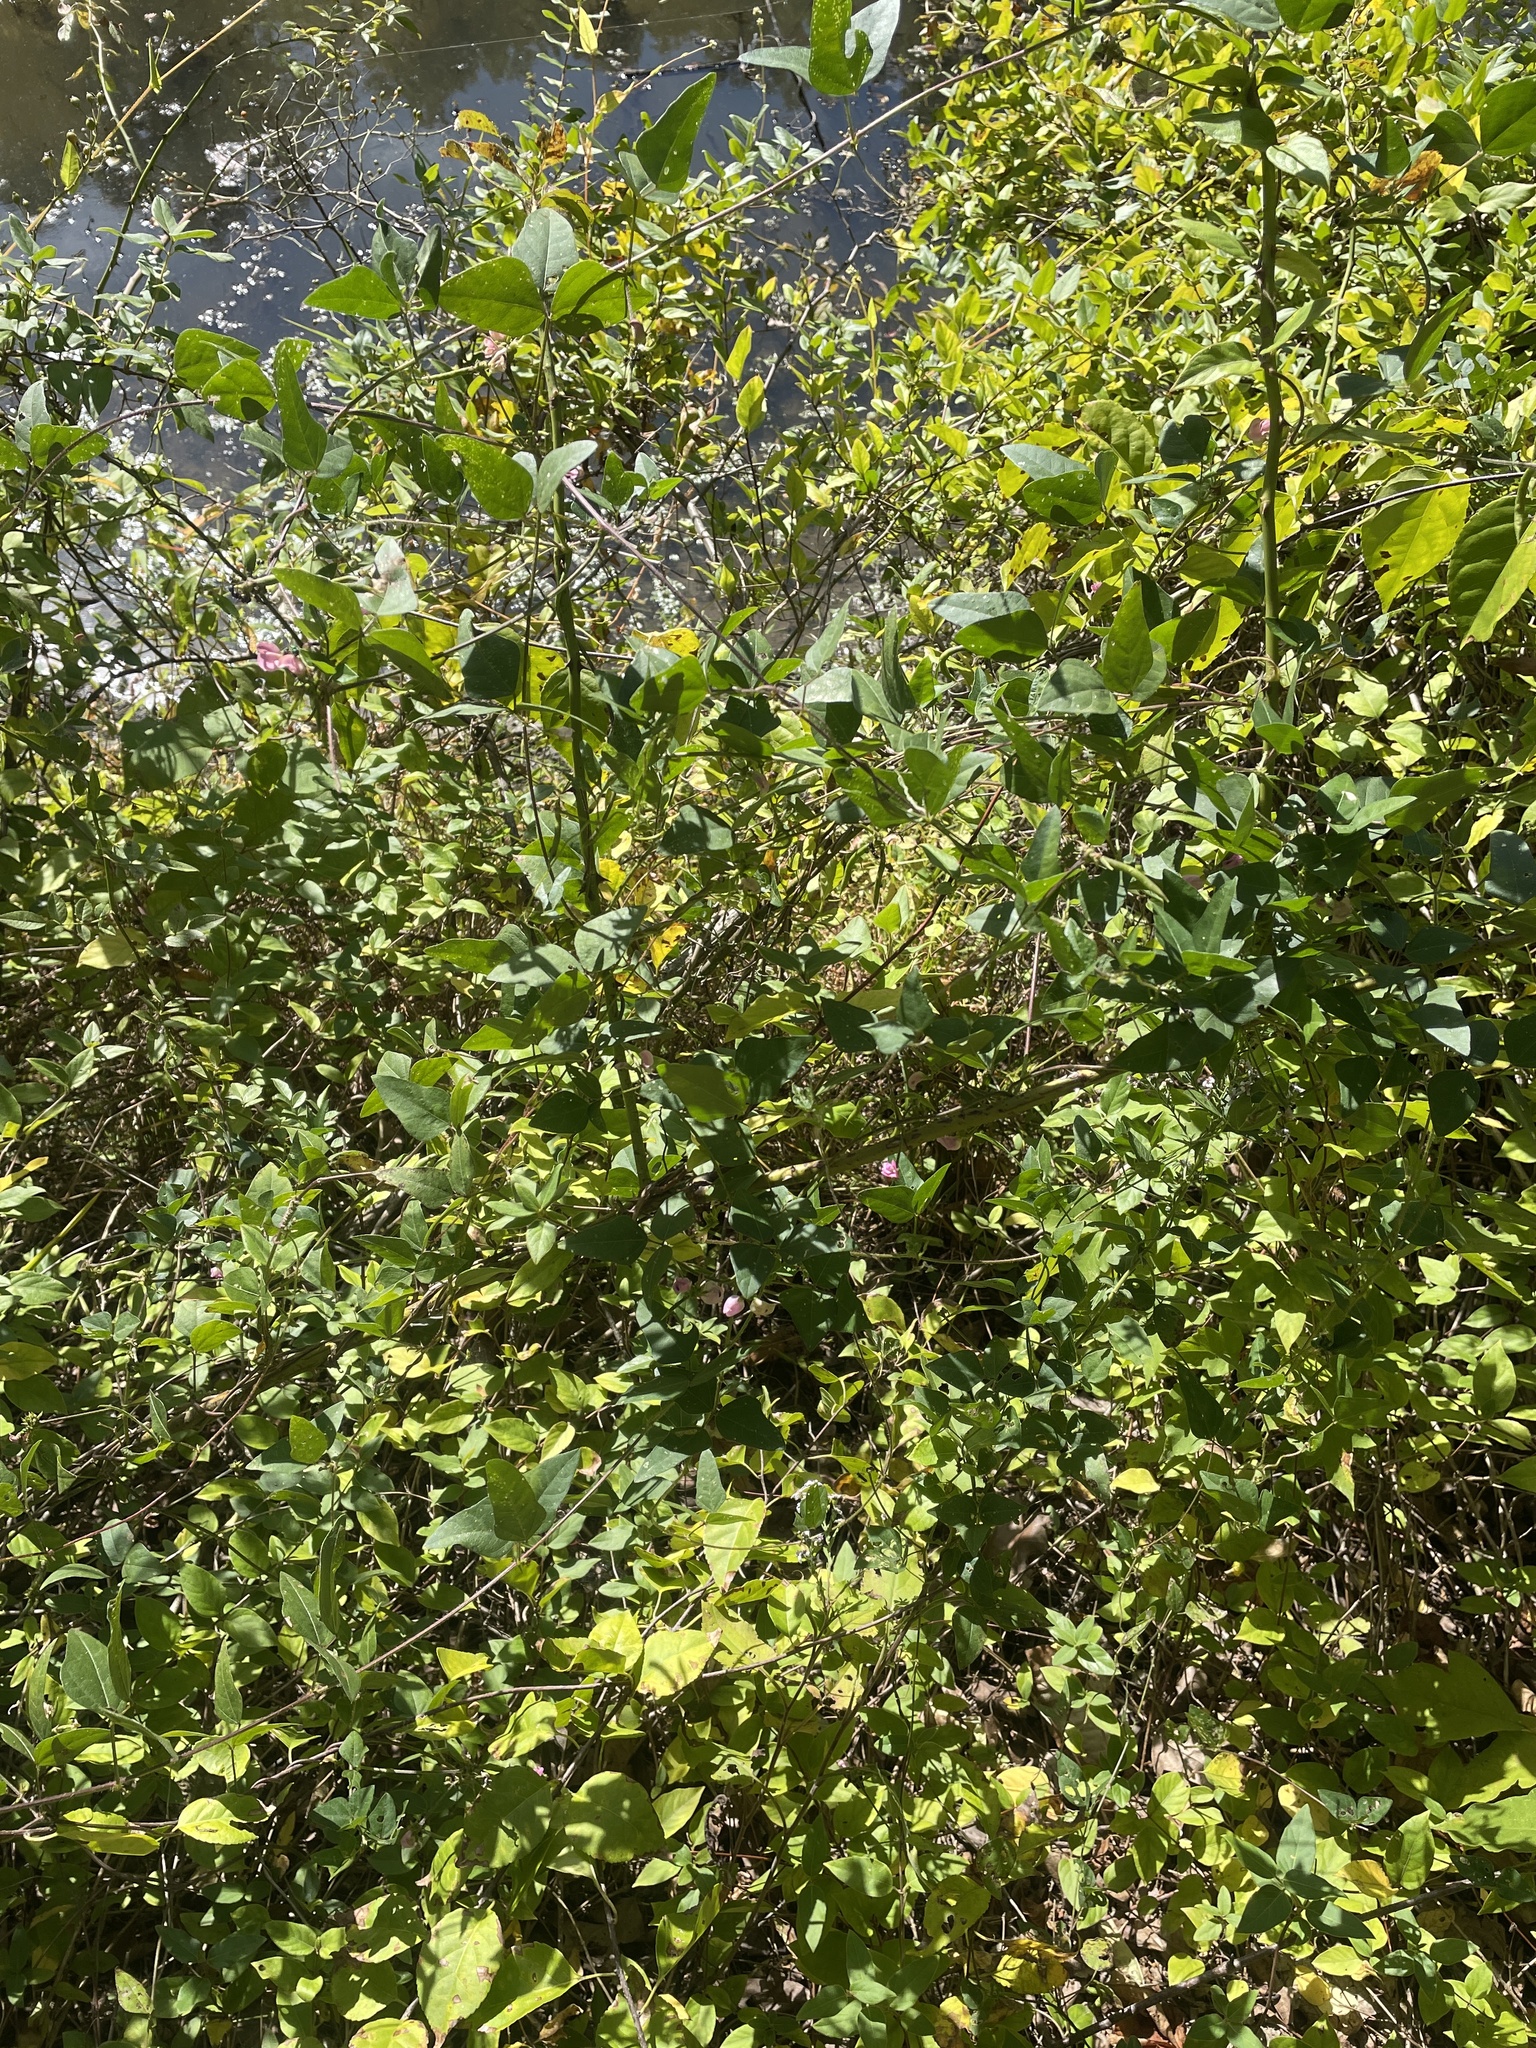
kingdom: Plantae
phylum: Tracheophyta
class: Magnoliopsida
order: Fabales
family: Fabaceae
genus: Strophostyles
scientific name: Strophostyles helvola
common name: Trailing wild bean
